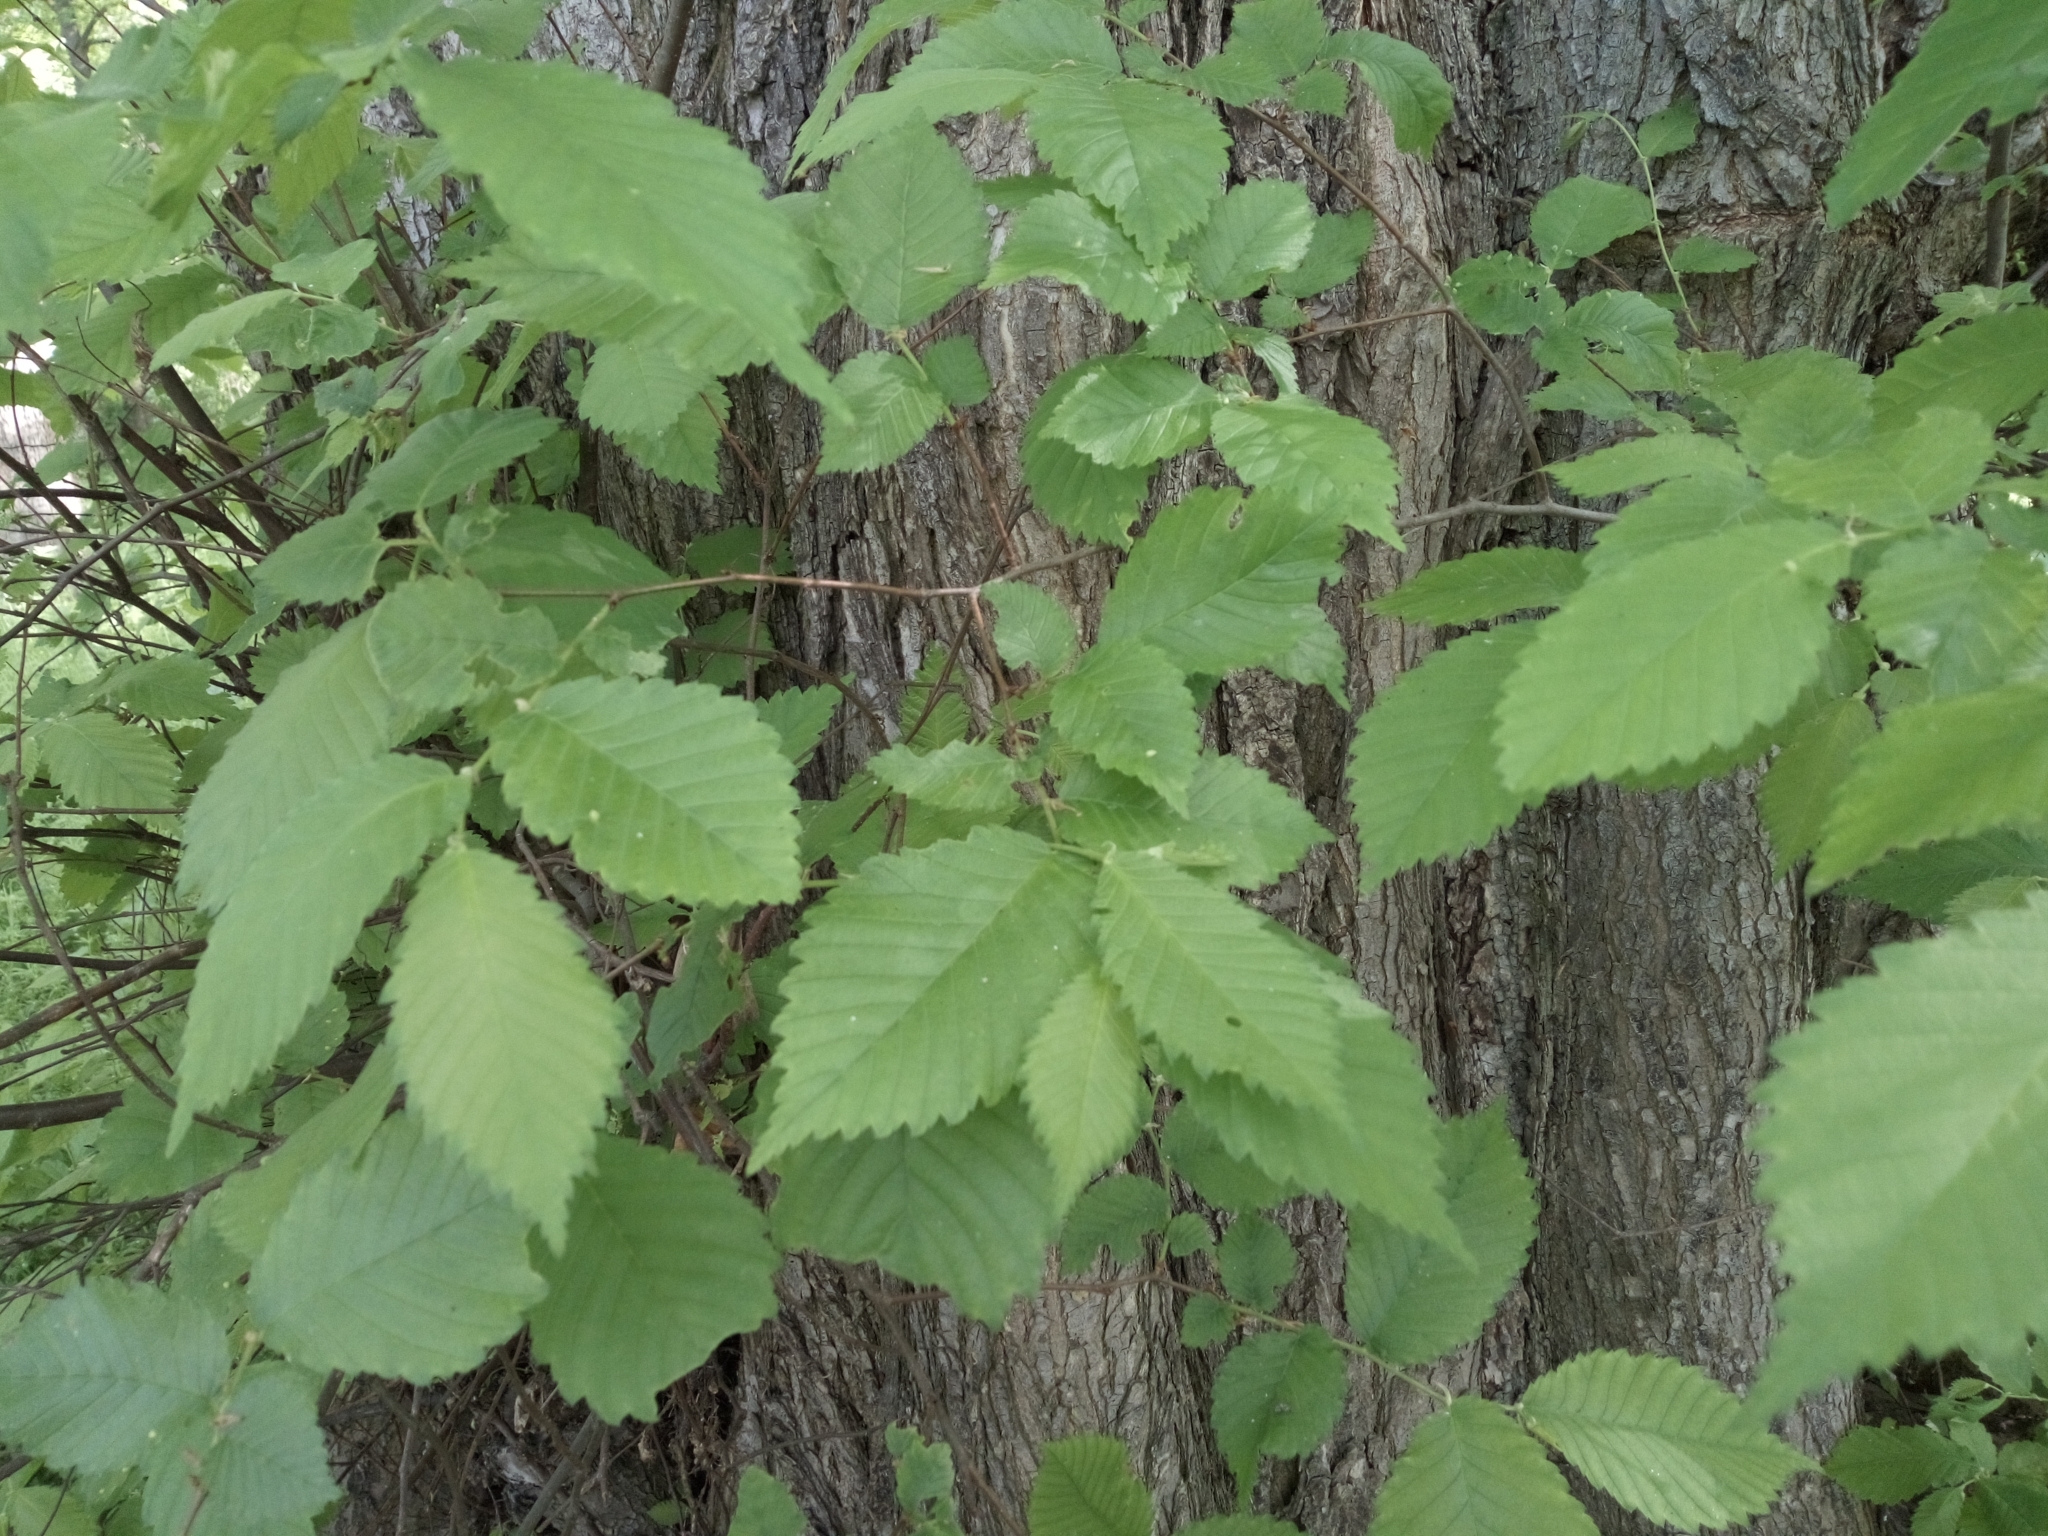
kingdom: Plantae
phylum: Tracheophyta
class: Magnoliopsida
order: Rosales
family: Ulmaceae
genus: Ulmus
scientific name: Ulmus laevis
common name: European white-elm
